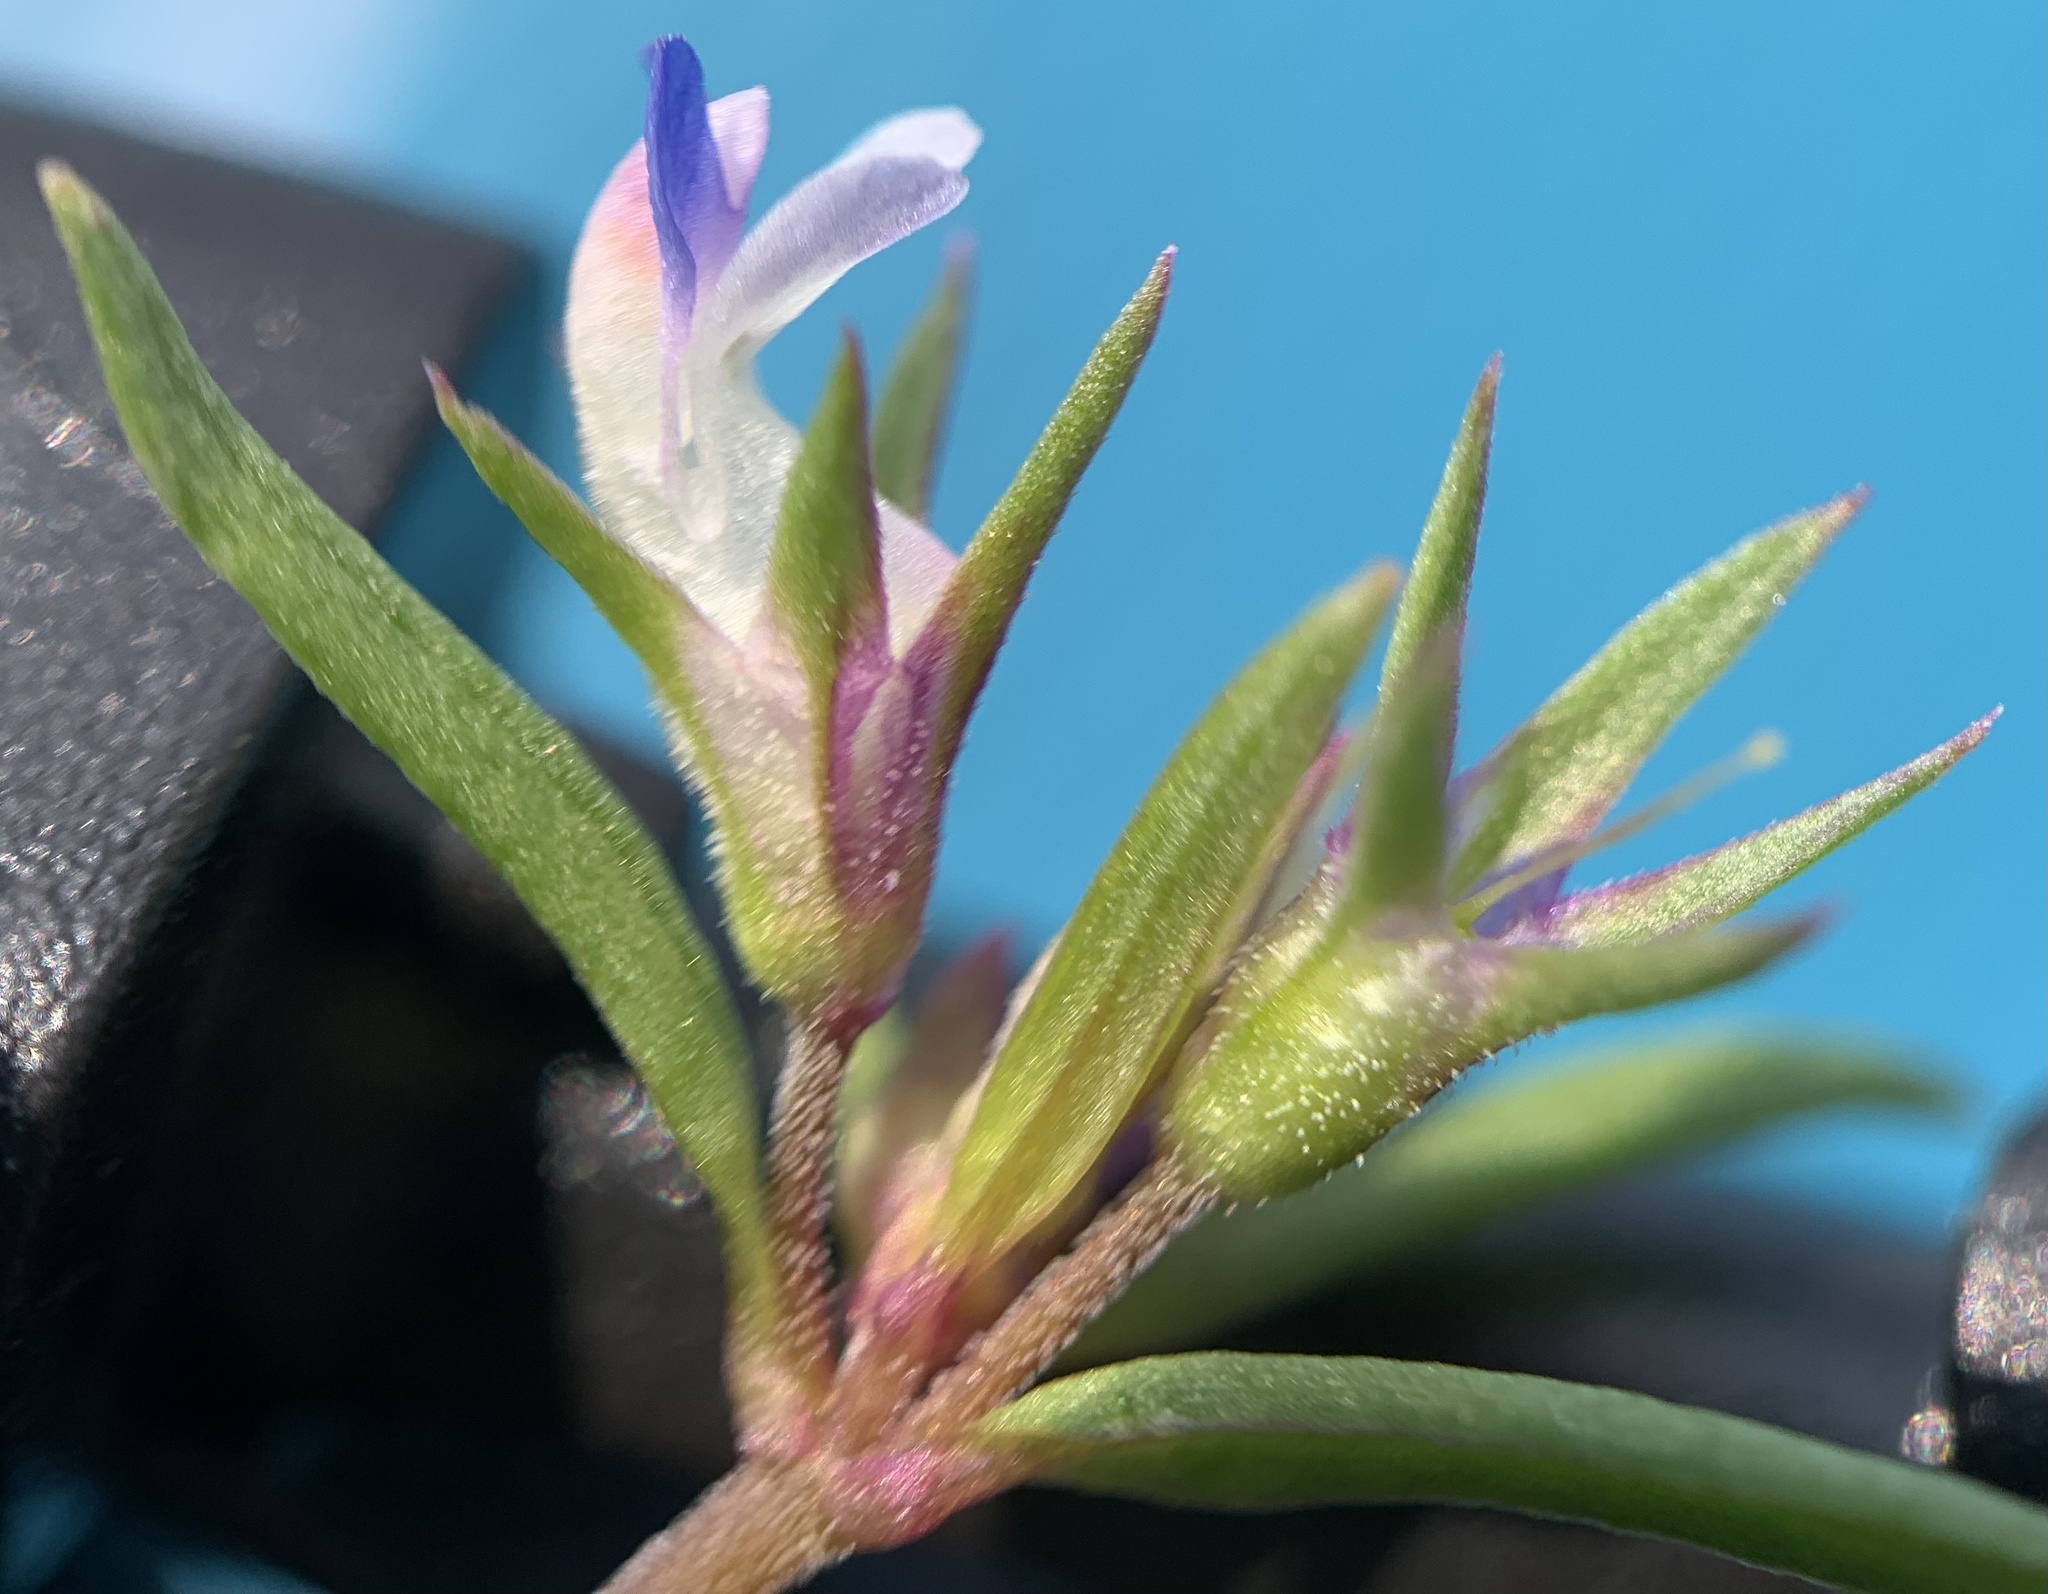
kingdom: Plantae
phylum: Tracheophyta
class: Magnoliopsida
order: Lamiales
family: Plantaginaceae
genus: Collinsia
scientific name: Collinsia parviflora
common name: Blue-lips
